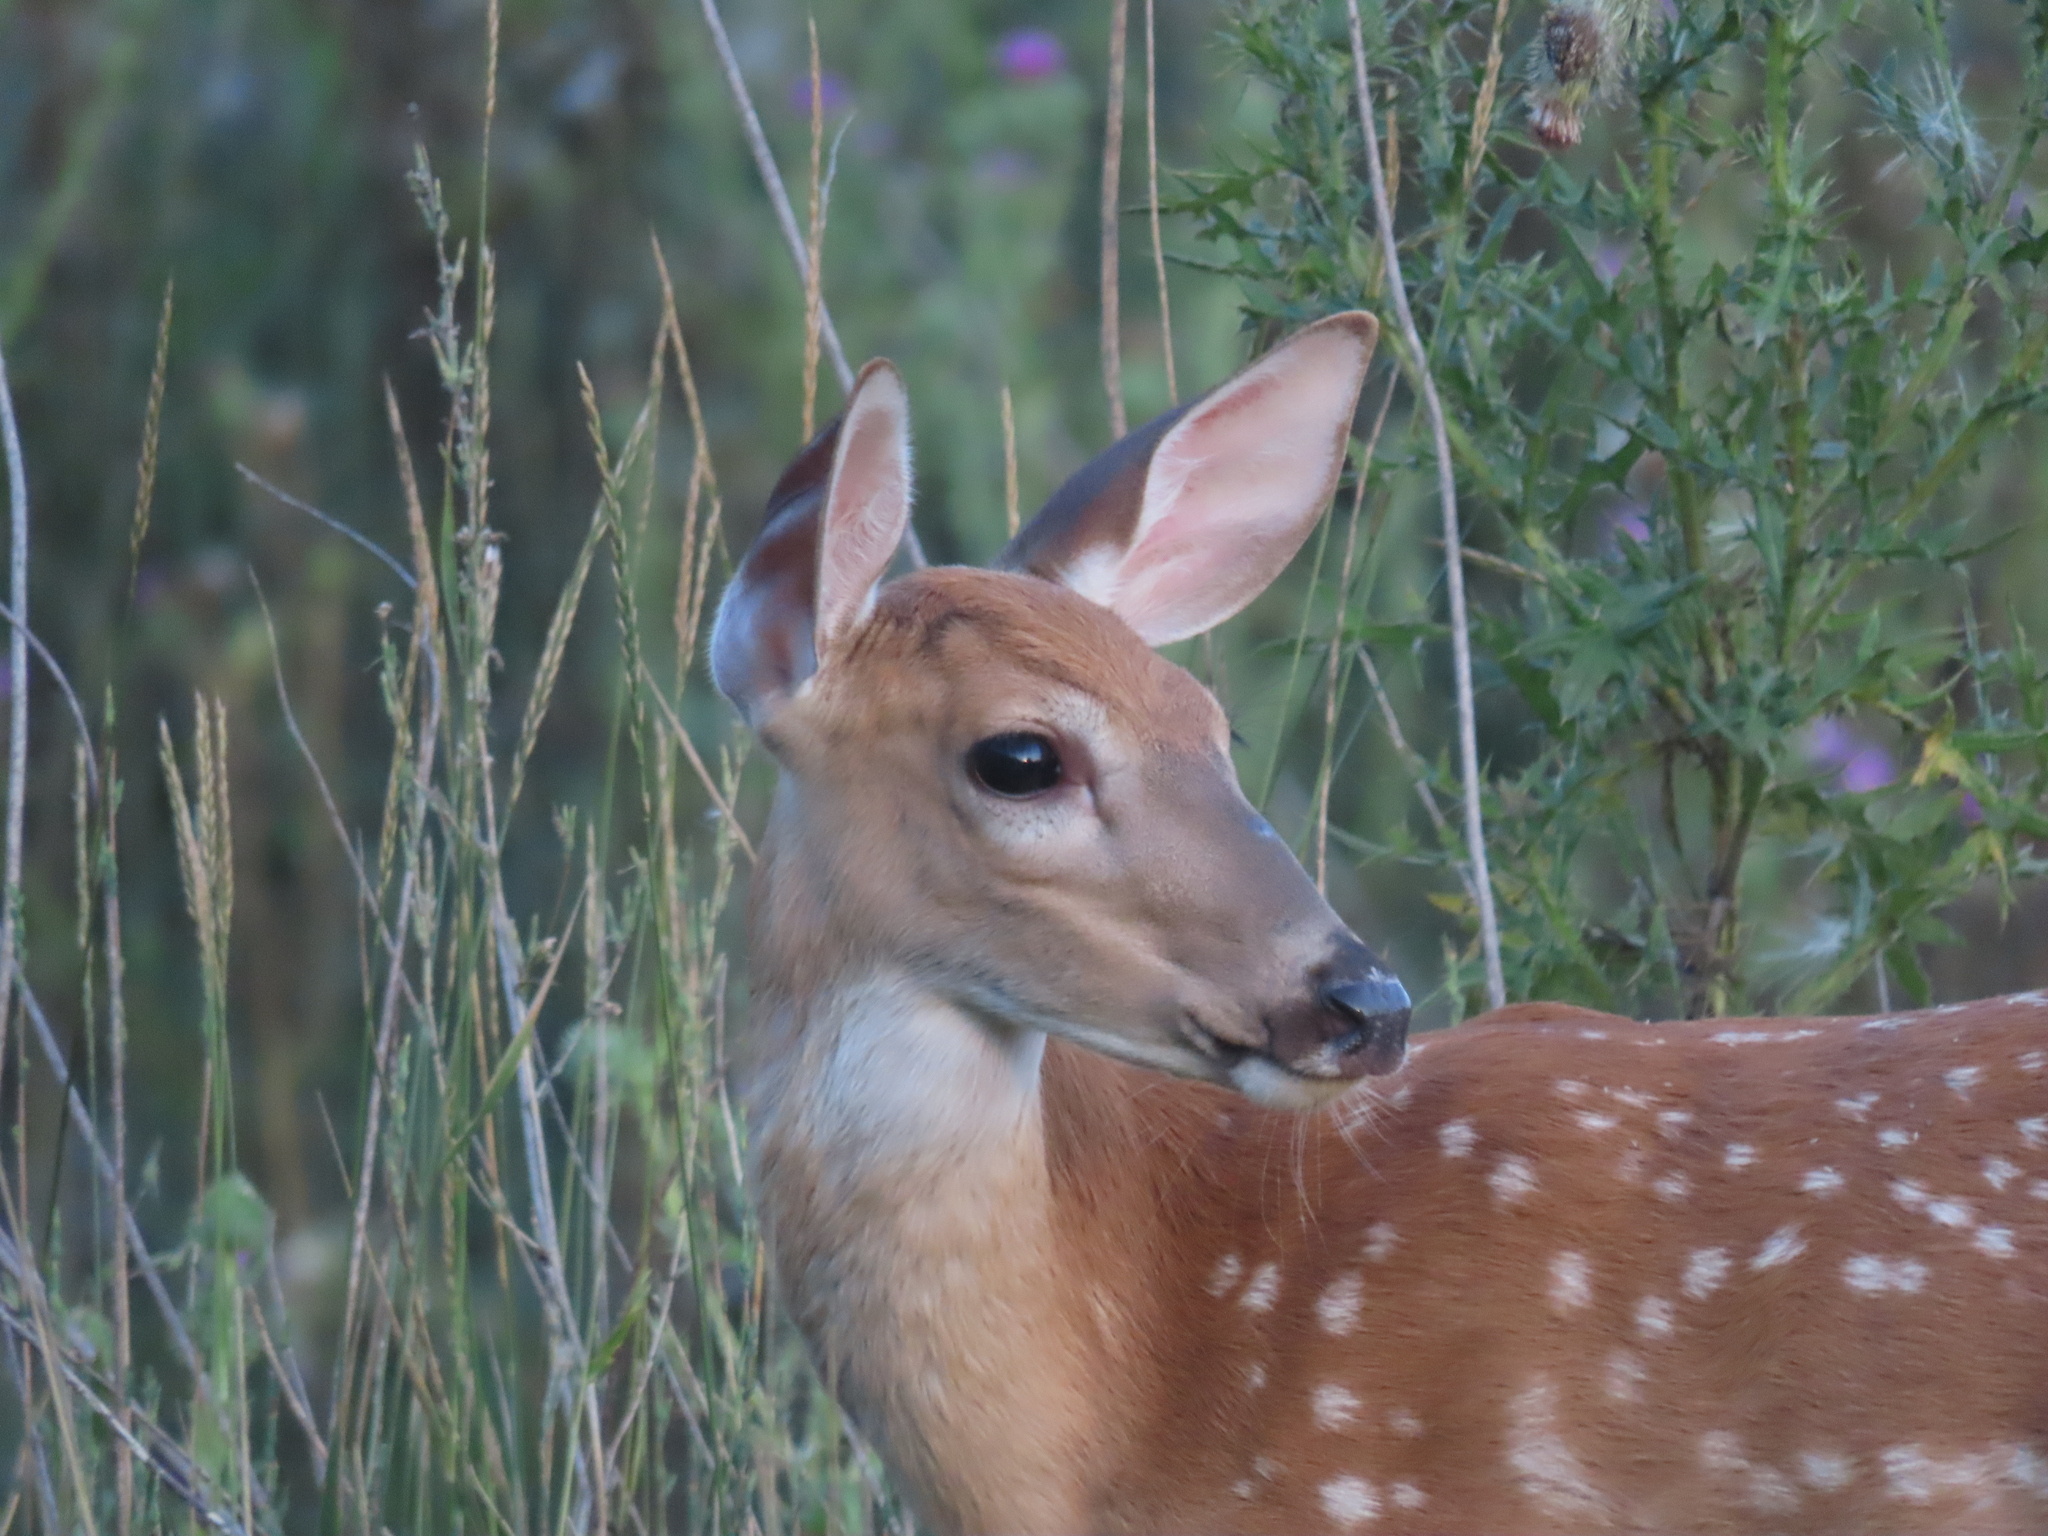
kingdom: Animalia
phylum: Chordata
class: Mammalia
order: Artiodactyla
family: Cervidae
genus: Odocoileus
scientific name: Odocoileus virginianus
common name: White-tailed deer
